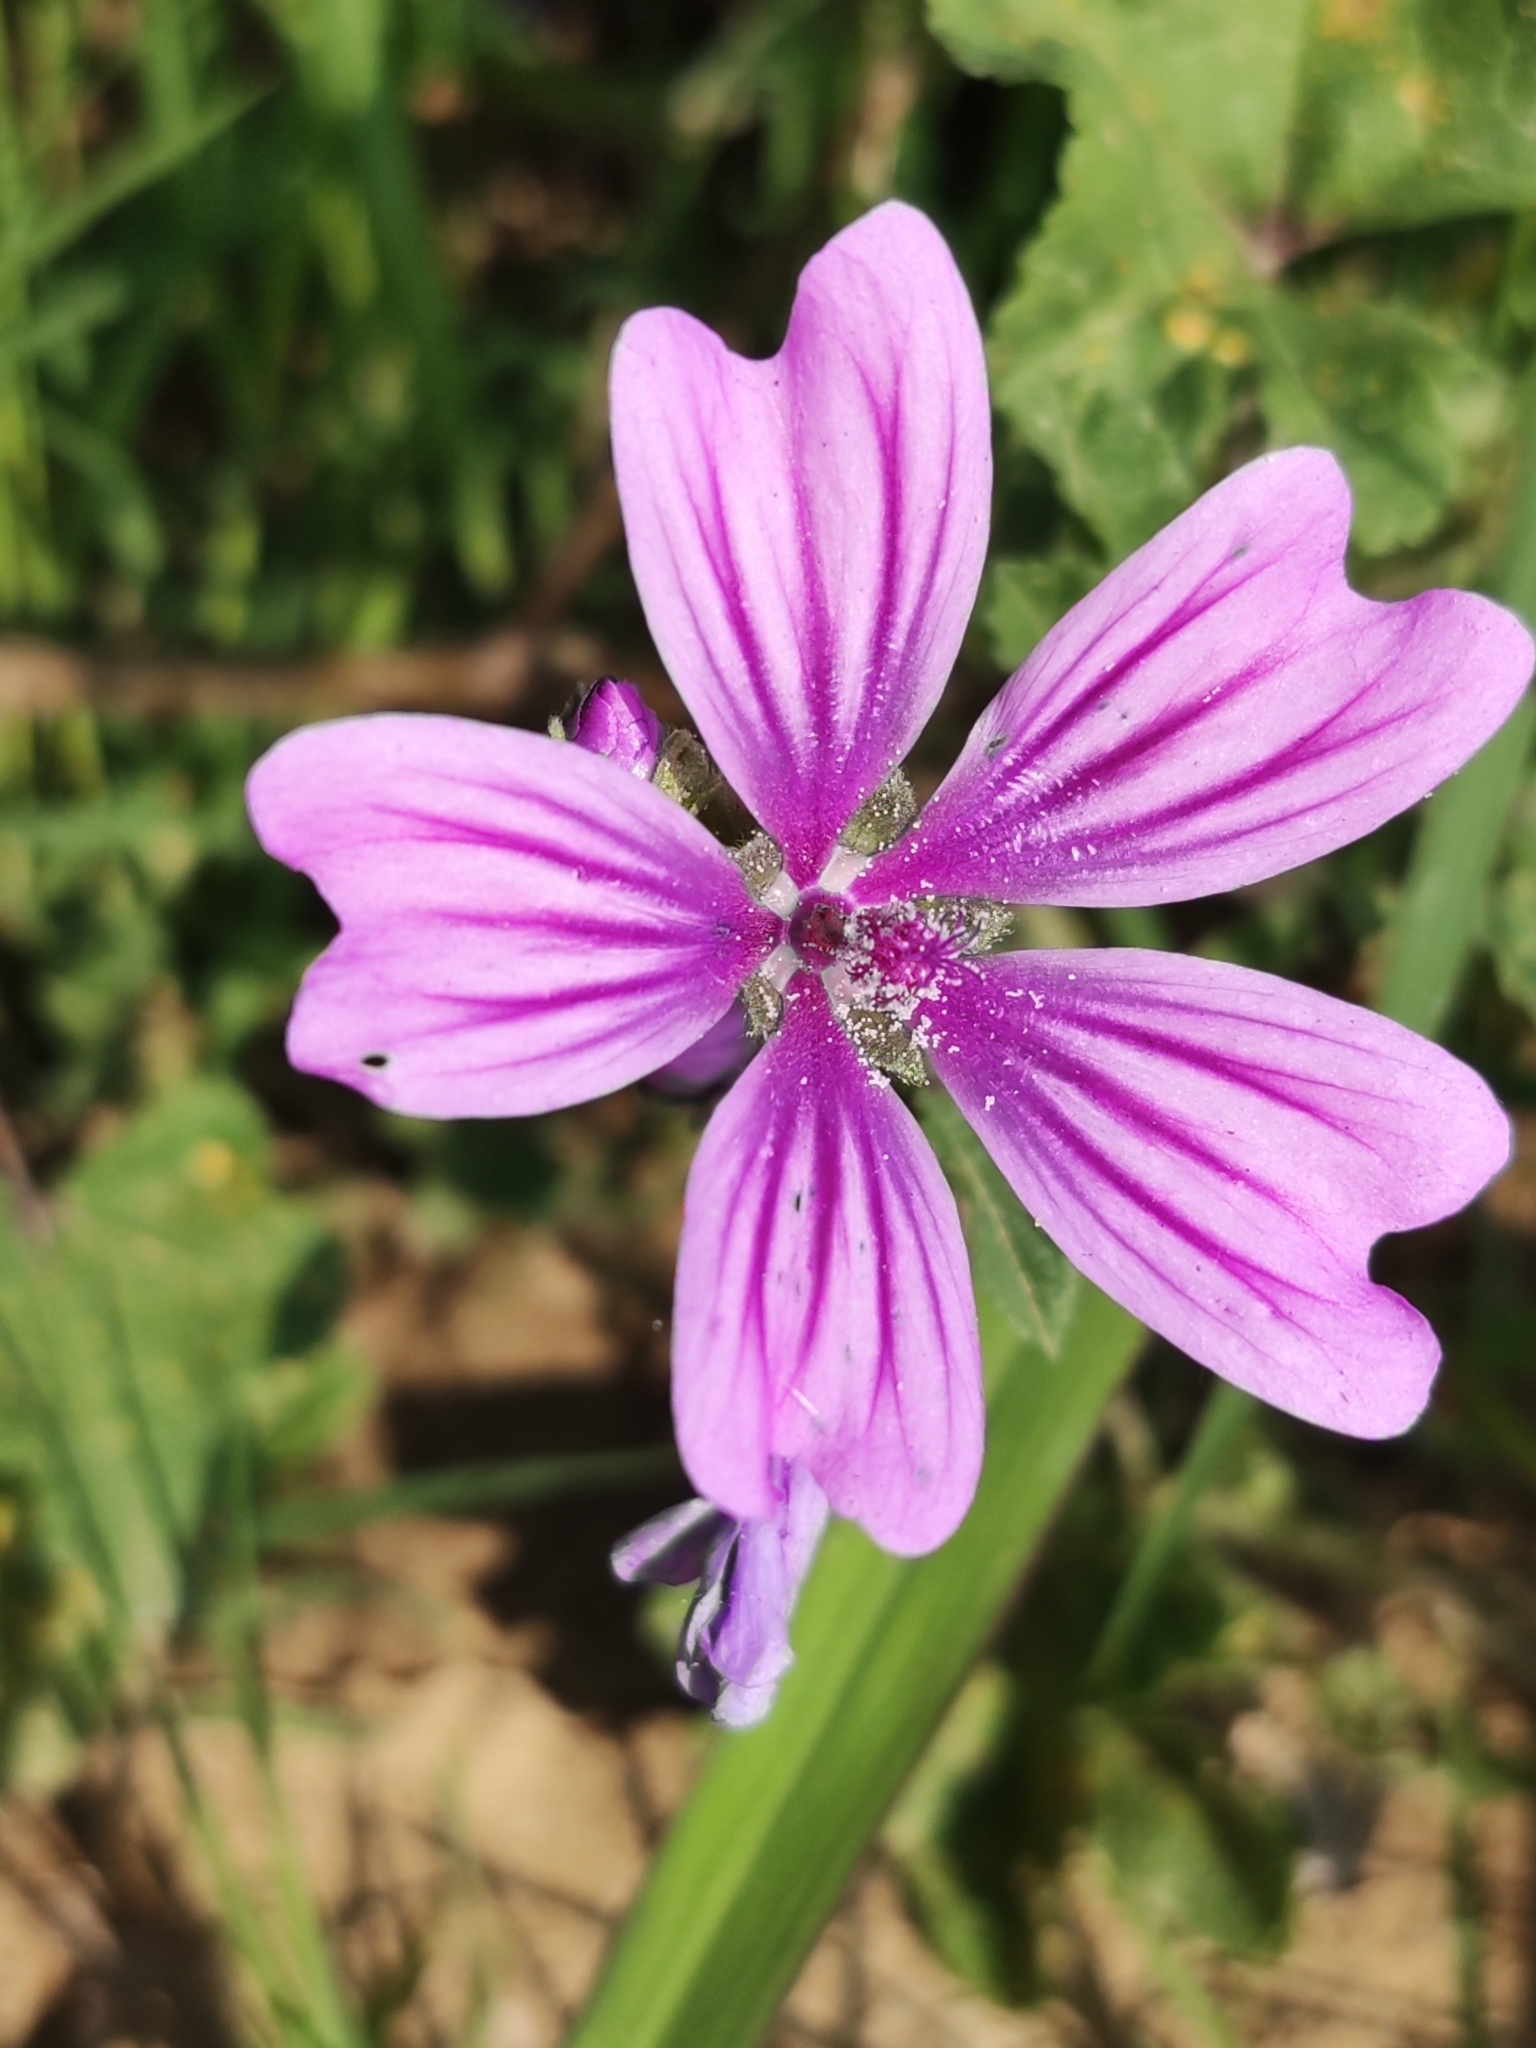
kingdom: Plantae
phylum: Tracheophyta
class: Magnoliopsida
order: Malvales
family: Malvaceae
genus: Malva
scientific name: Malva sylvestris
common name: Common mallow
